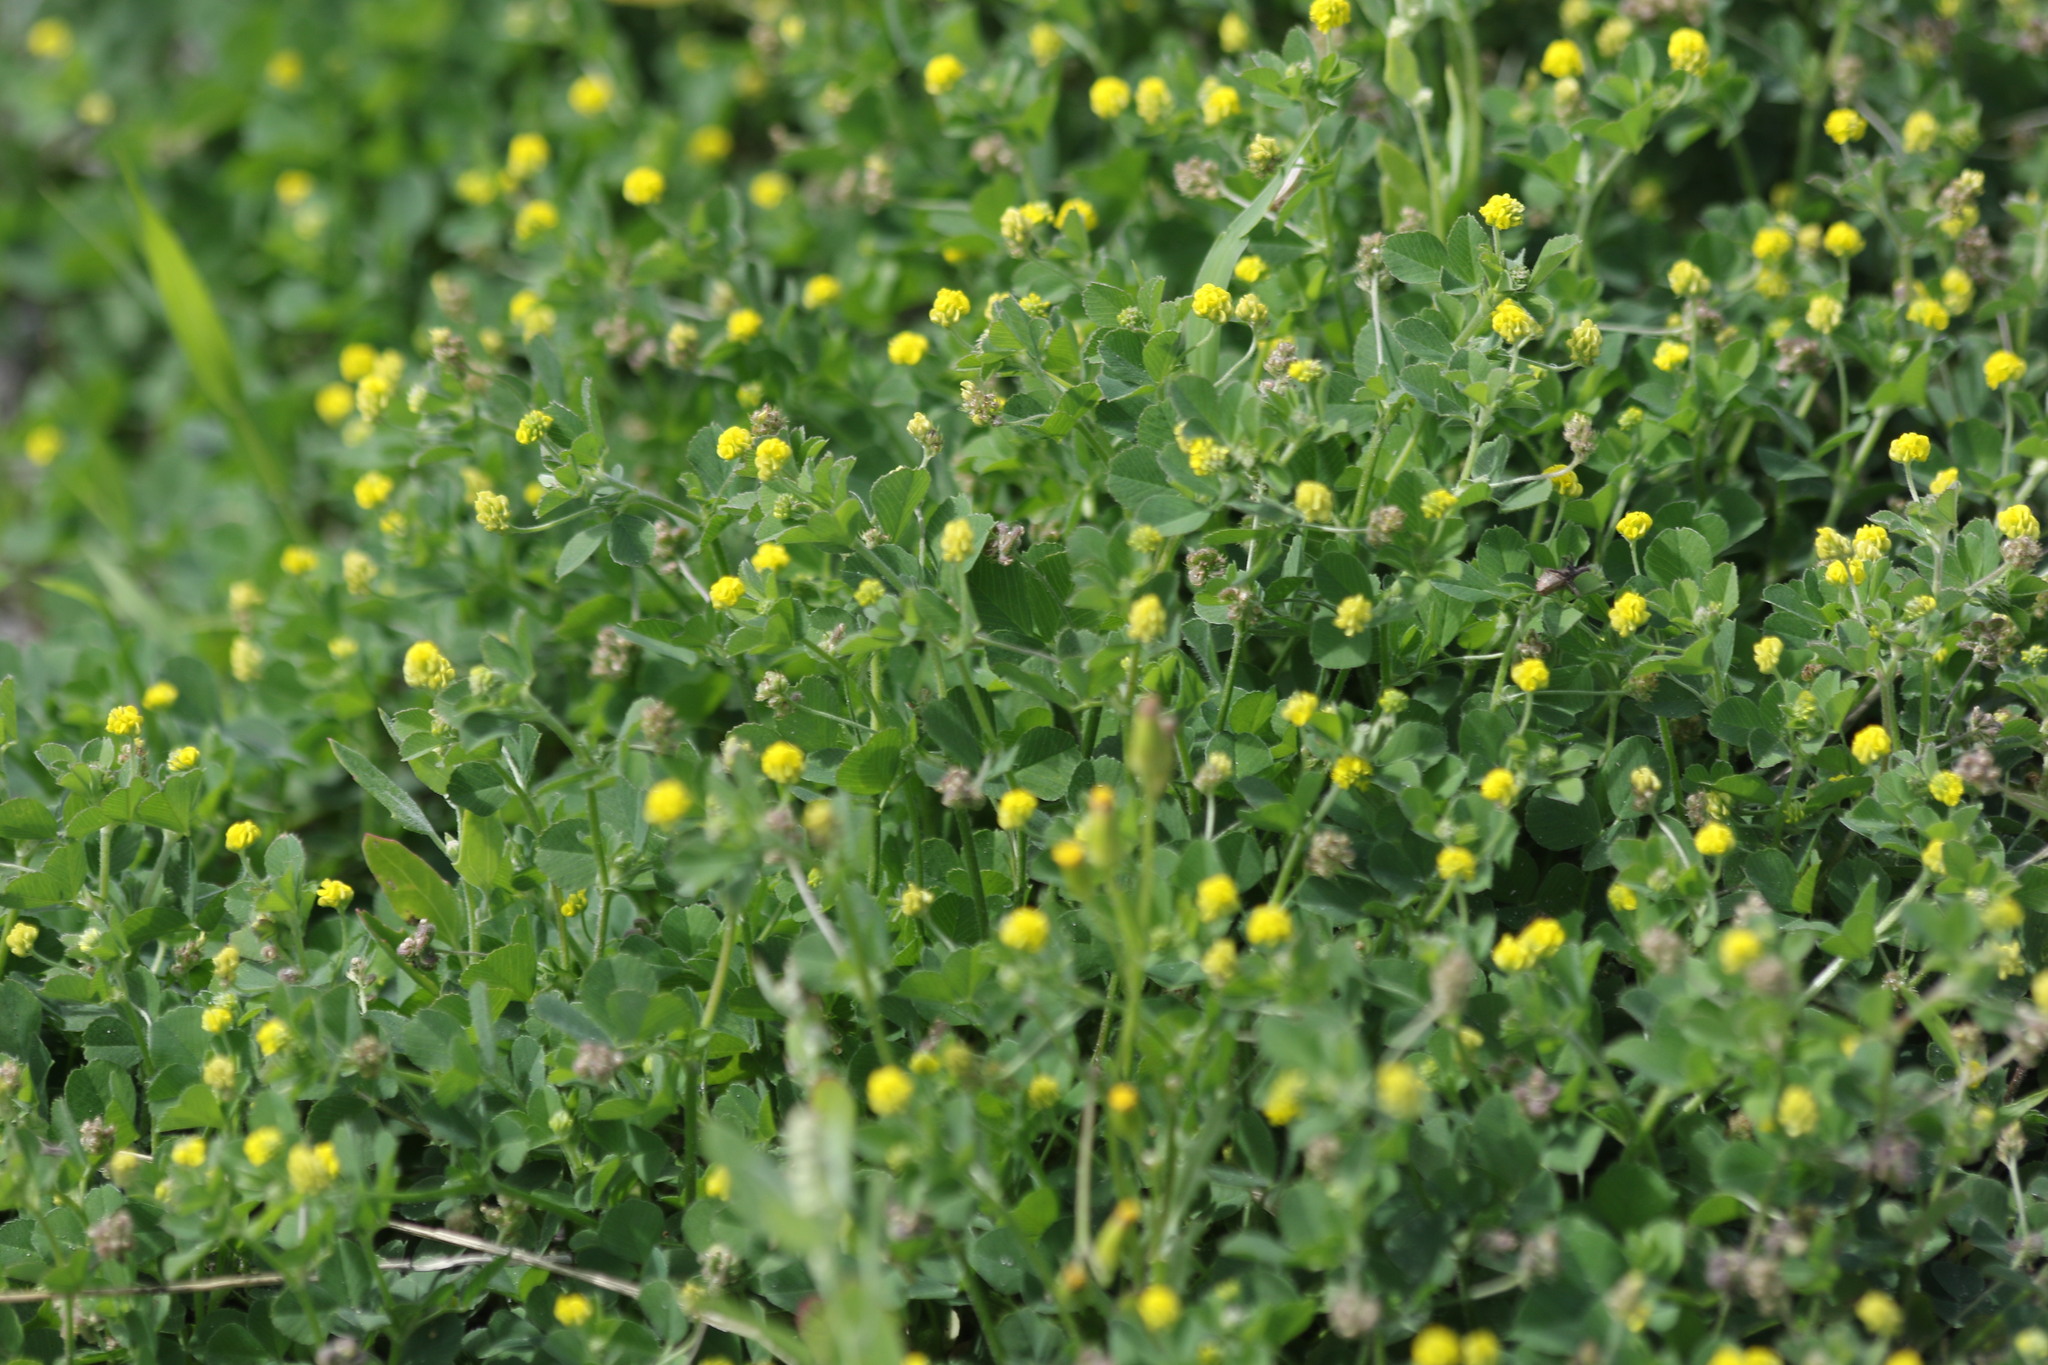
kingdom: Plantae
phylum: Tracheophyta
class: Magnoliopsida
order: Fabales
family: Fabaceae
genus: Medicago
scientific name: Medicago lupulina
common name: Black medick
